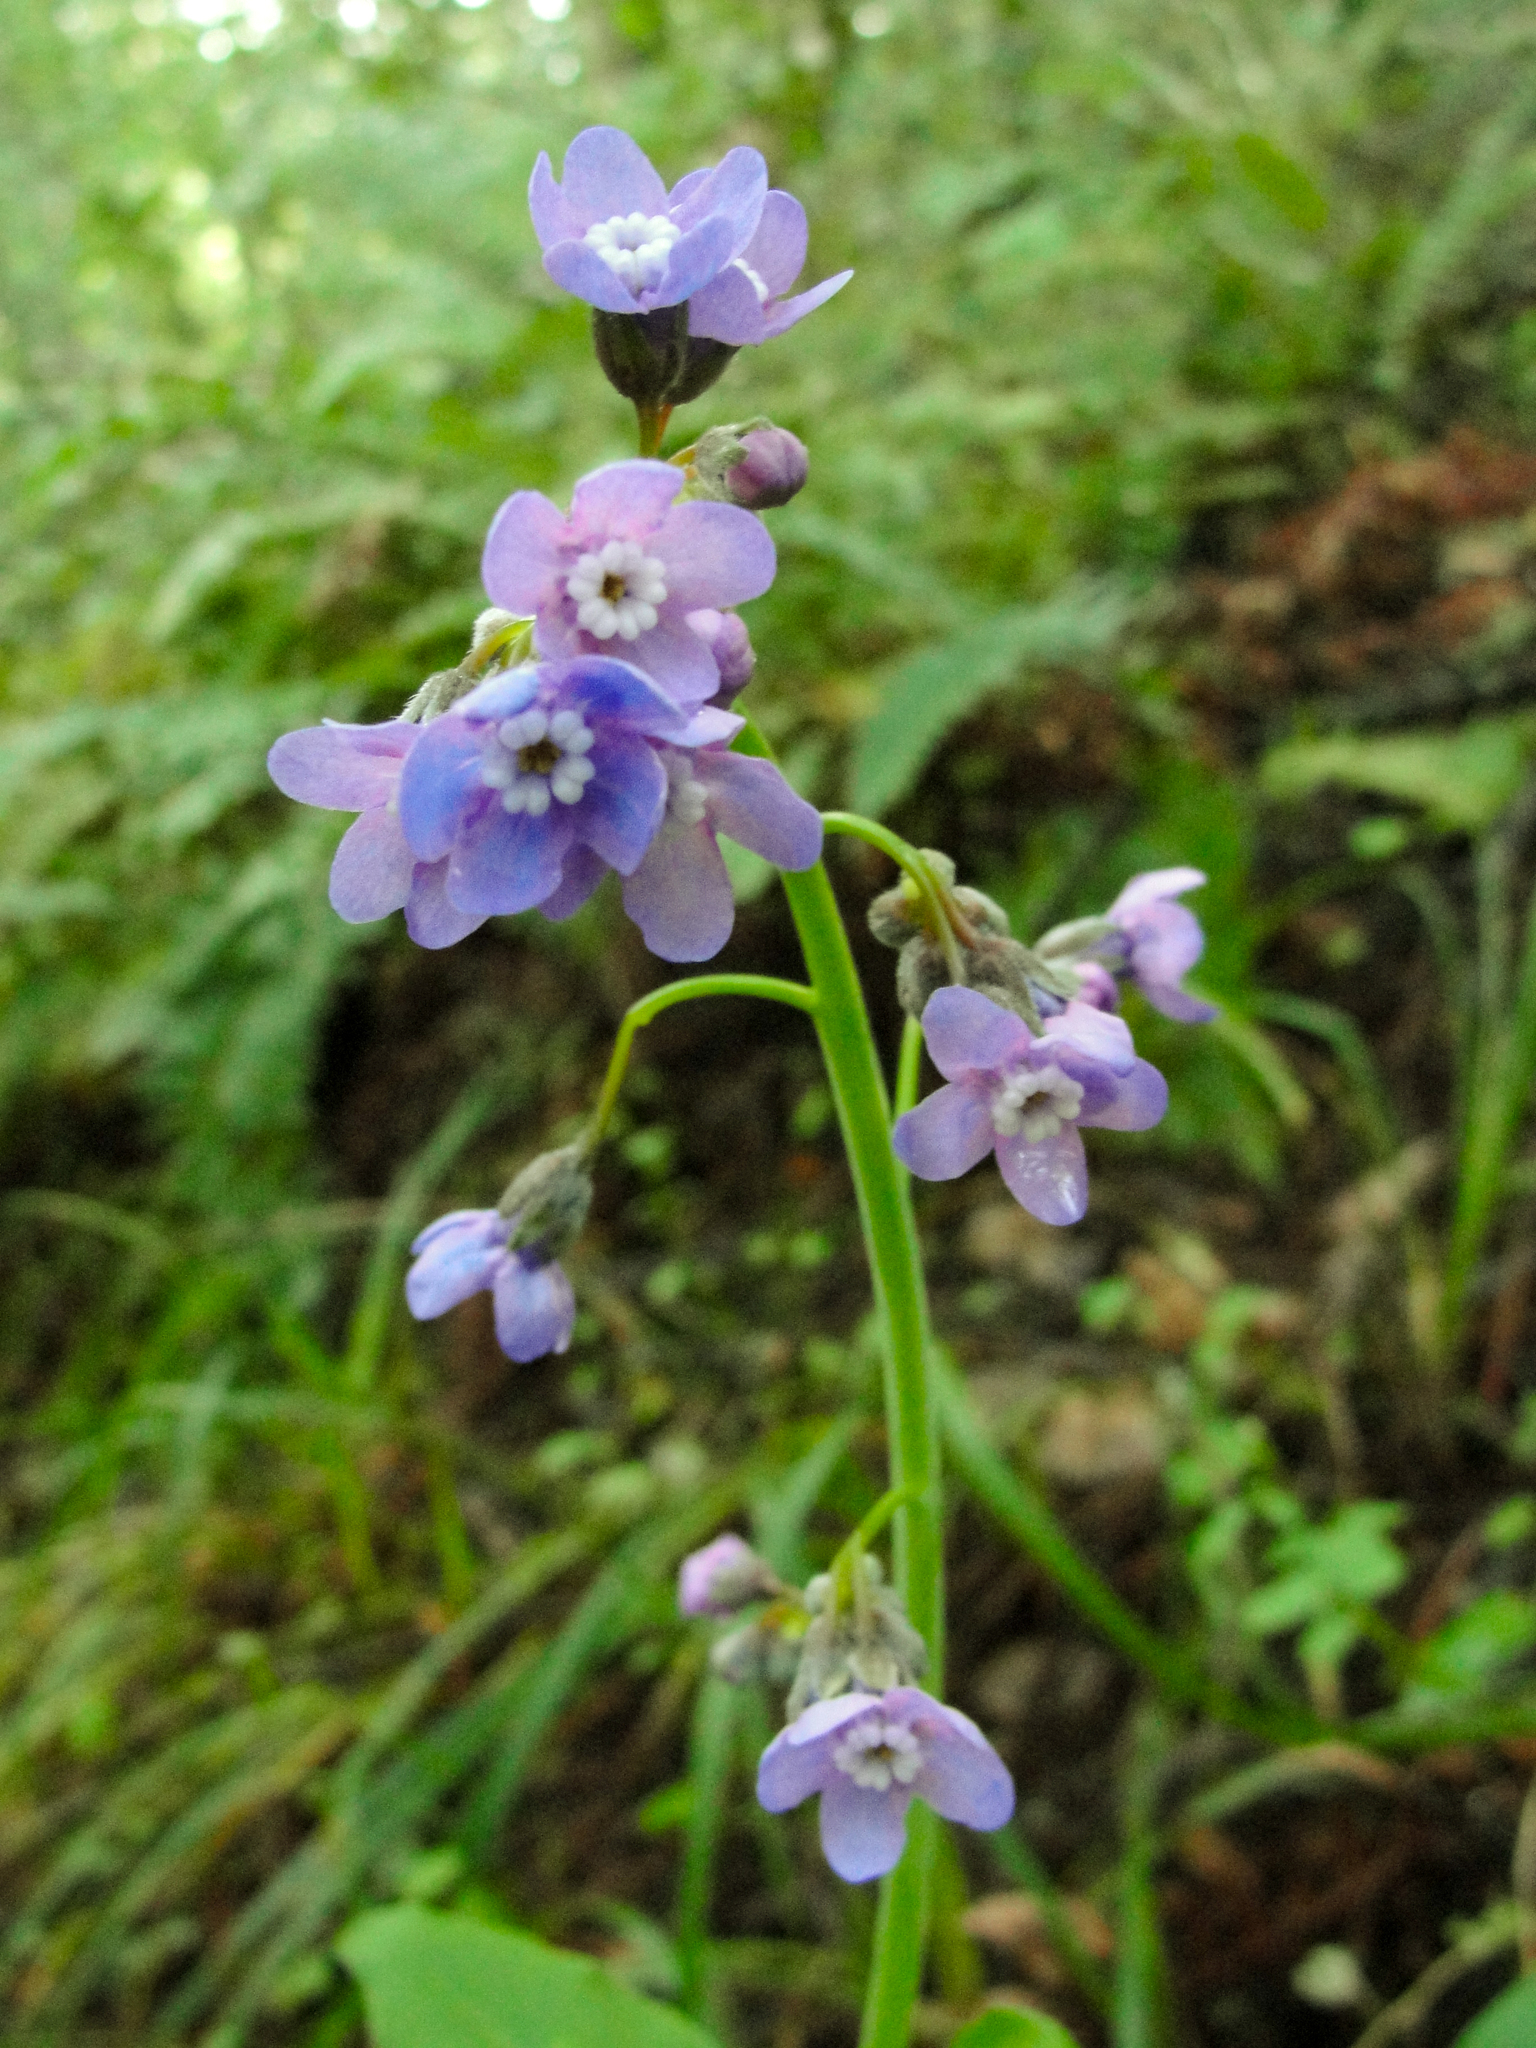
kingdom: Plantae
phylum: Tracheophyta
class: Magnoliopsida
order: Boraginales
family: Boraginaceae
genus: Adelinia
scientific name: Adelinia grande
